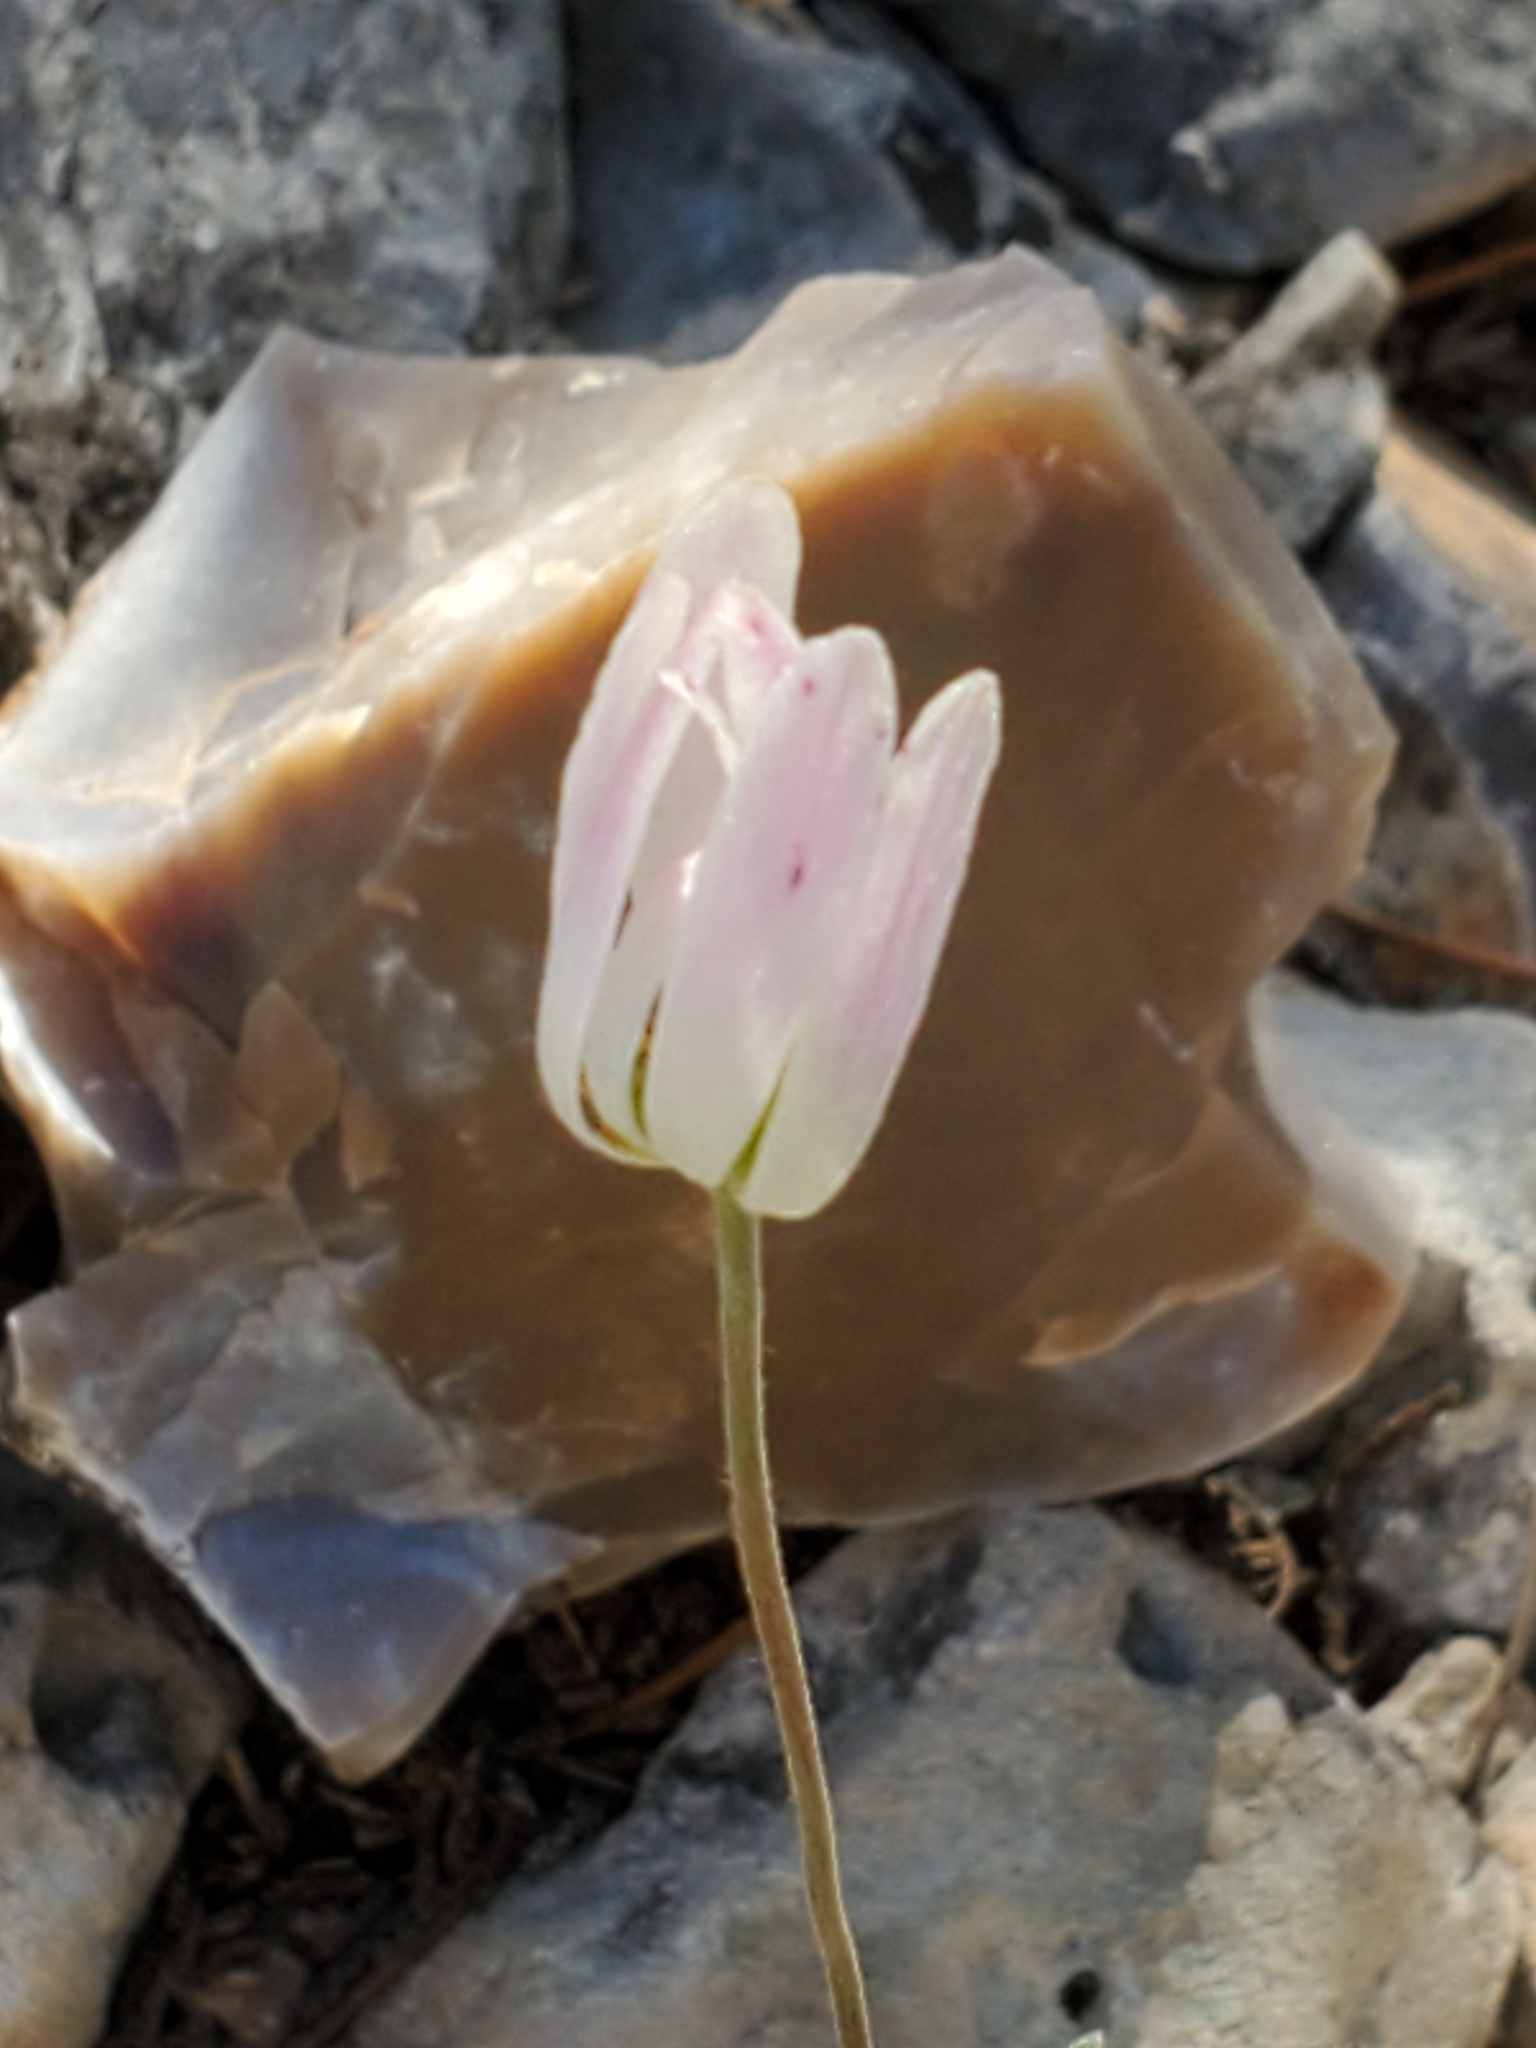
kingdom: Plantae
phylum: Tracheophyta
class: Magnoliopsida
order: Ranunculales
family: Ranunculaceae
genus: Anemone
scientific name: Anemone edwardsiana
